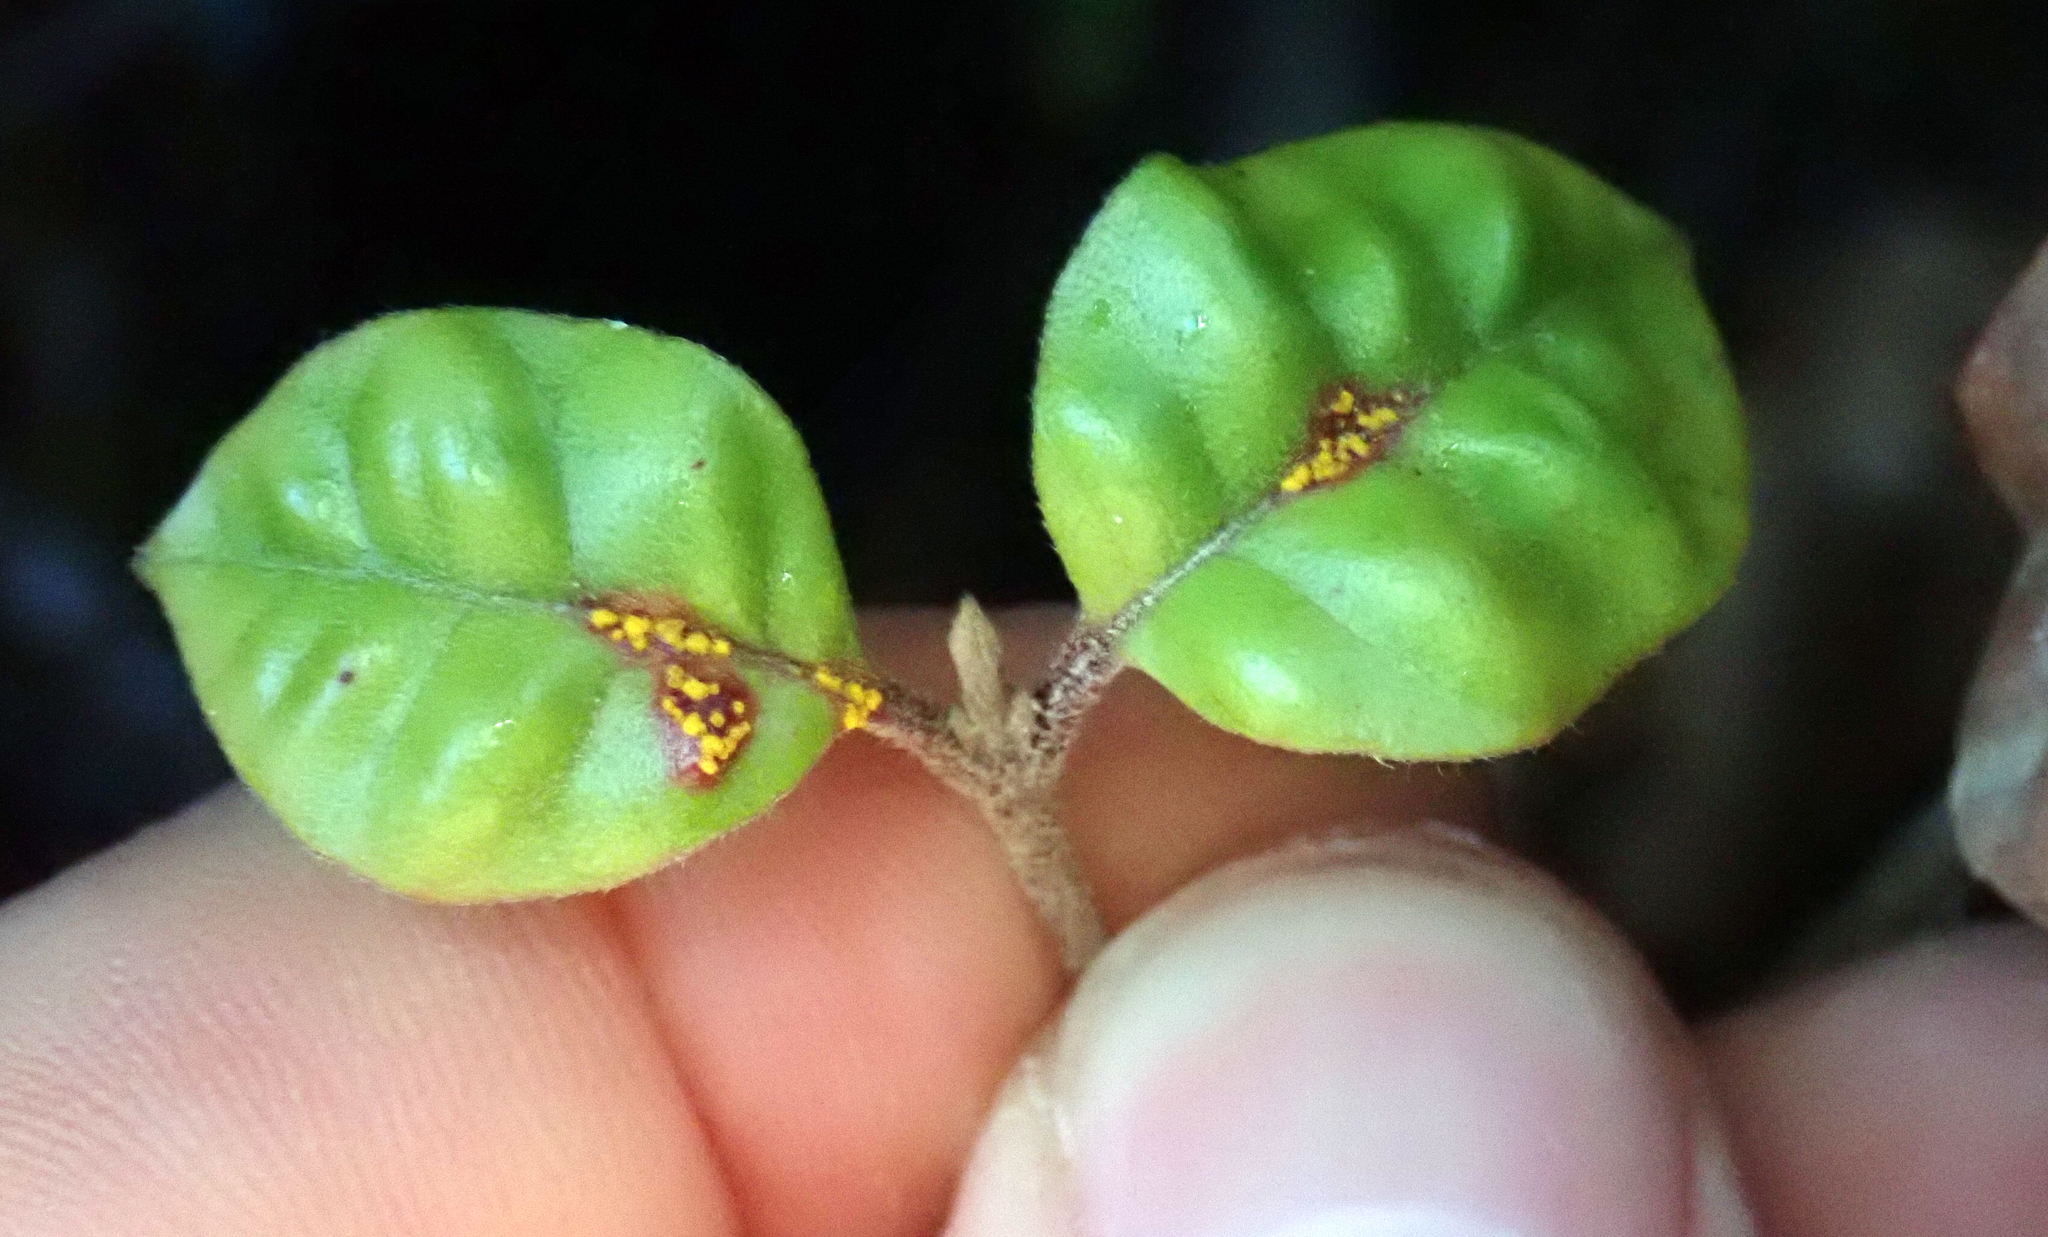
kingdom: Fungi
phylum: Basidiomycota
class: Pucciniomycetes
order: Pucciniales
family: Sphaerophragmiaceae
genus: Austropuccinia
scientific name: Austropuccinia psidii
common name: Myrtle rust
